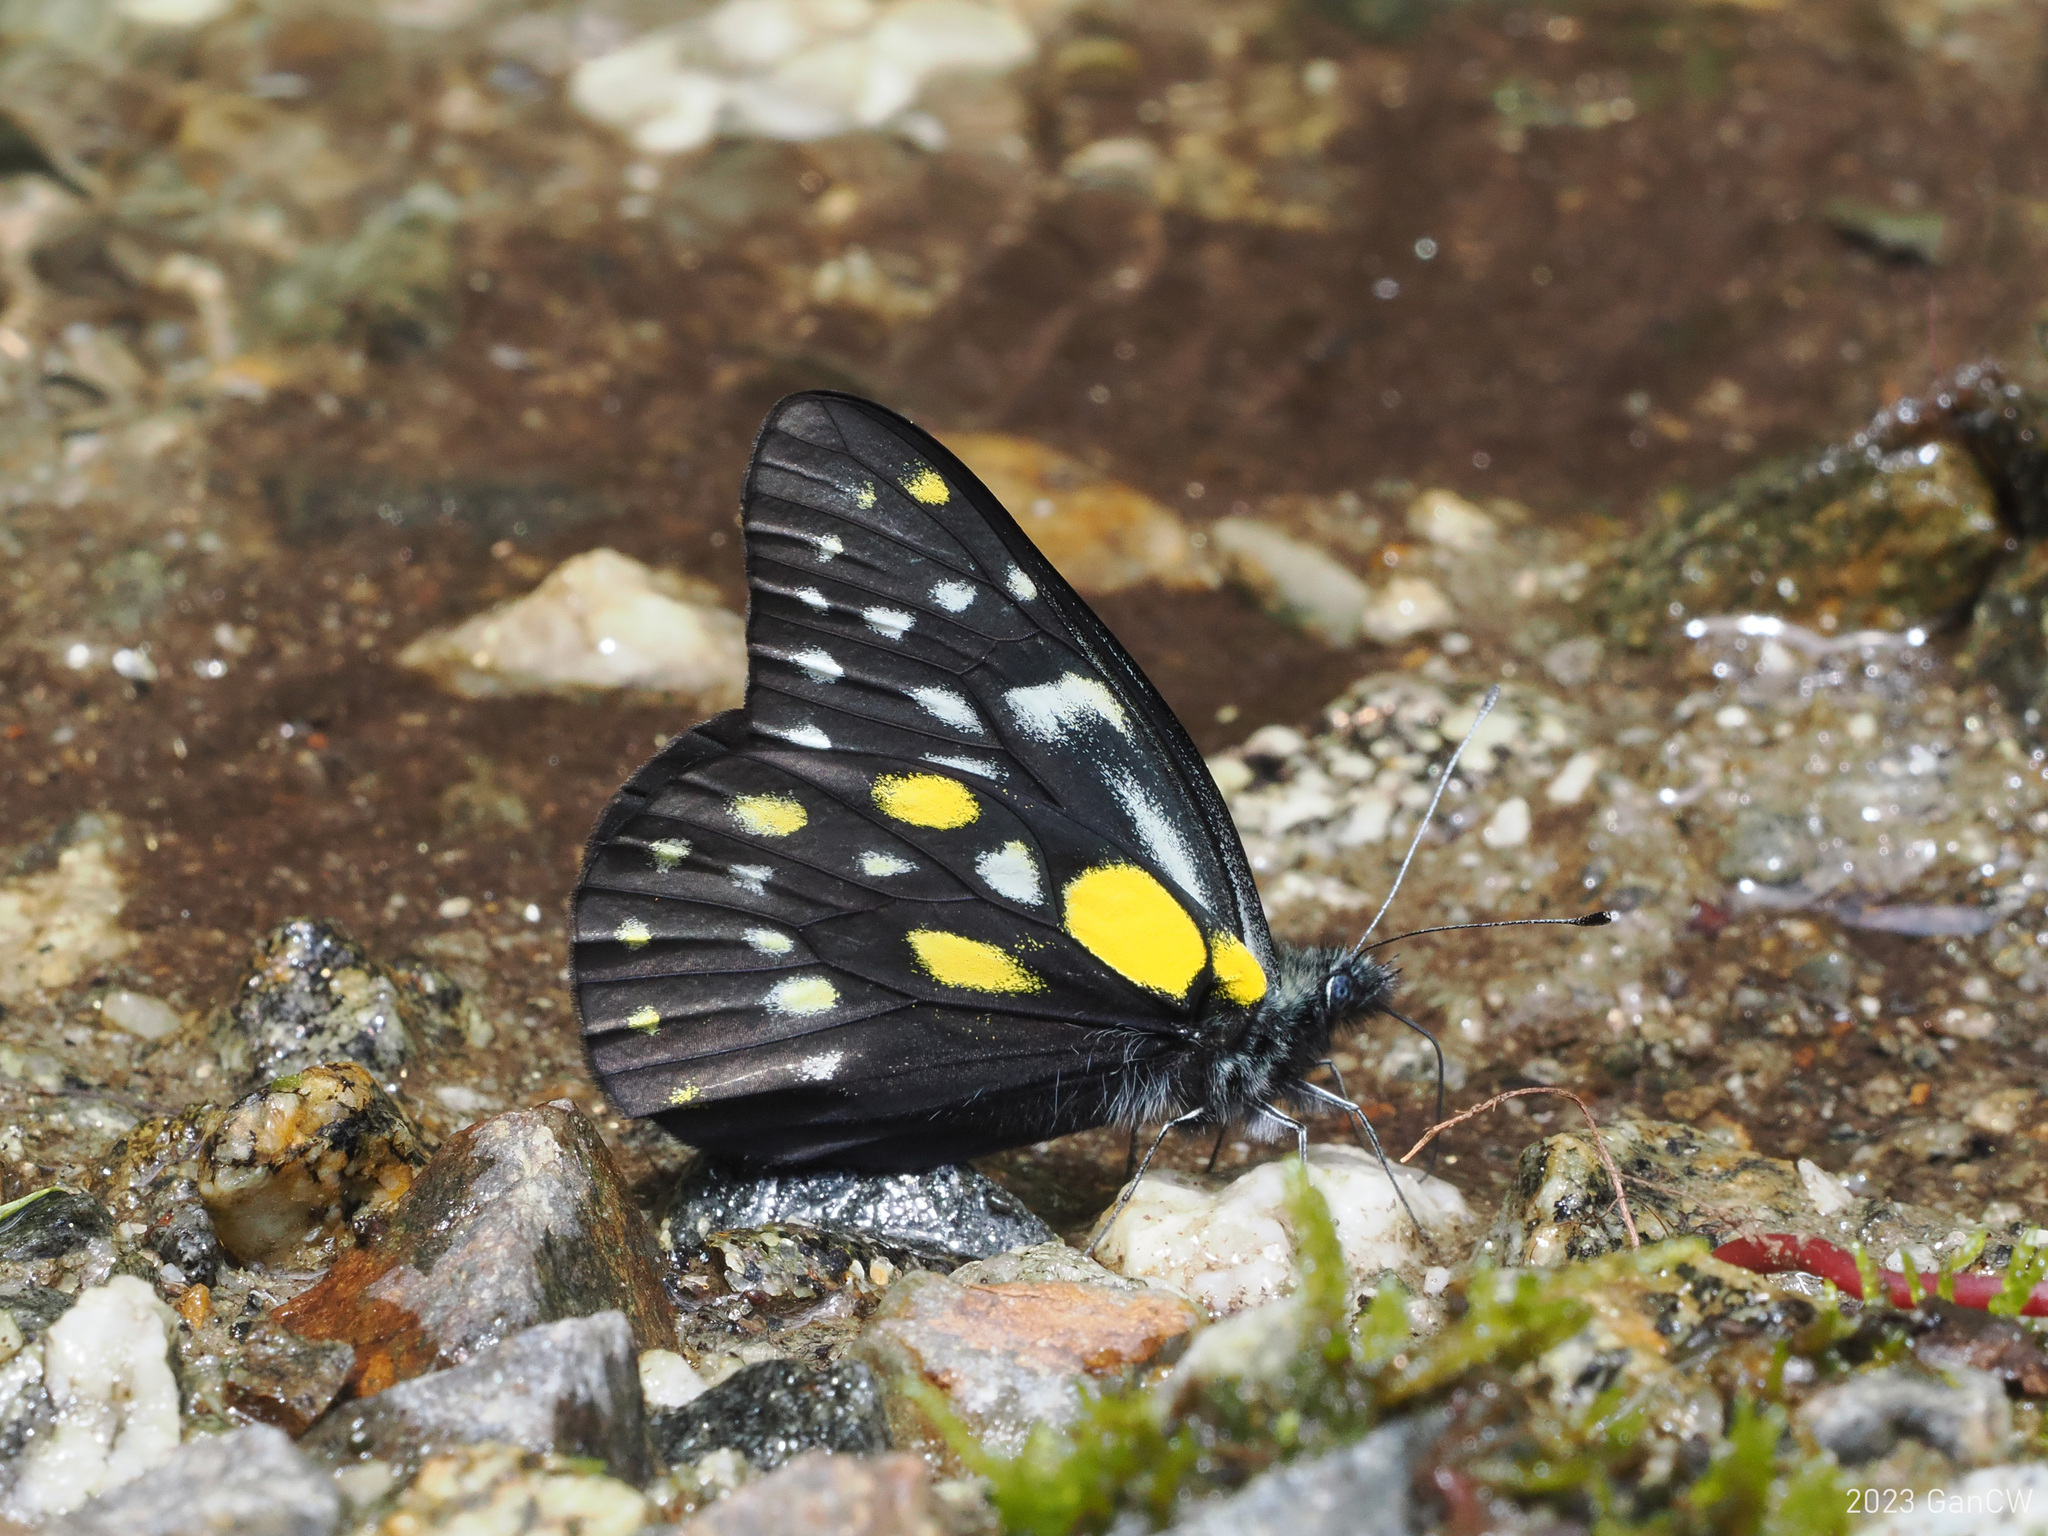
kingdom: Animalia
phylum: Arthropoda
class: Insecta
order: Lepidoptera
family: Pieridae
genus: Delias
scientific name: Delias belladonna
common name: Hill jezebel
